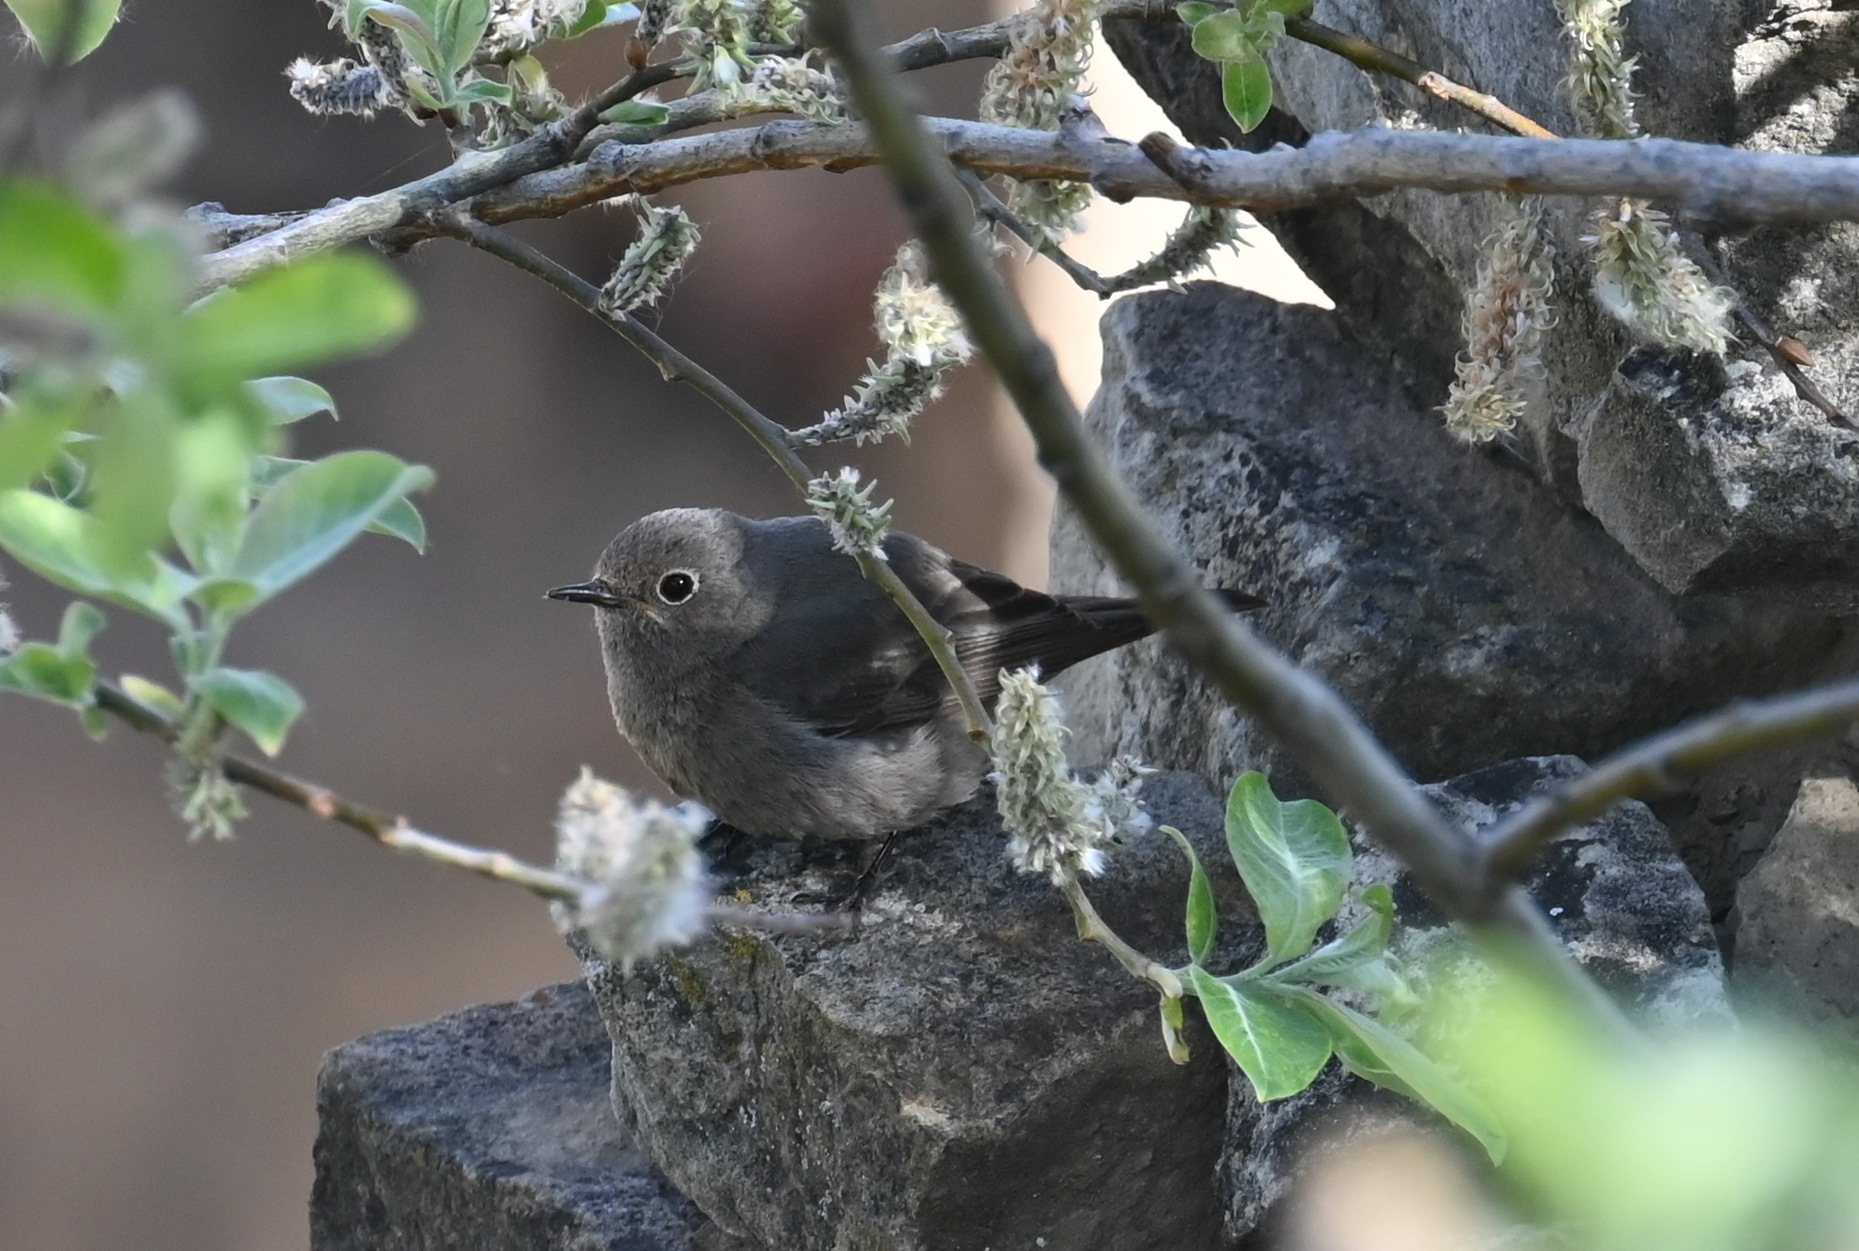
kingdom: Animalia
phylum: Chordata
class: Aves
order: Passeriformes
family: Muscicapidae
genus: Phoenicurus
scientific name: Phoenicurus ochruros
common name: Black redstart
